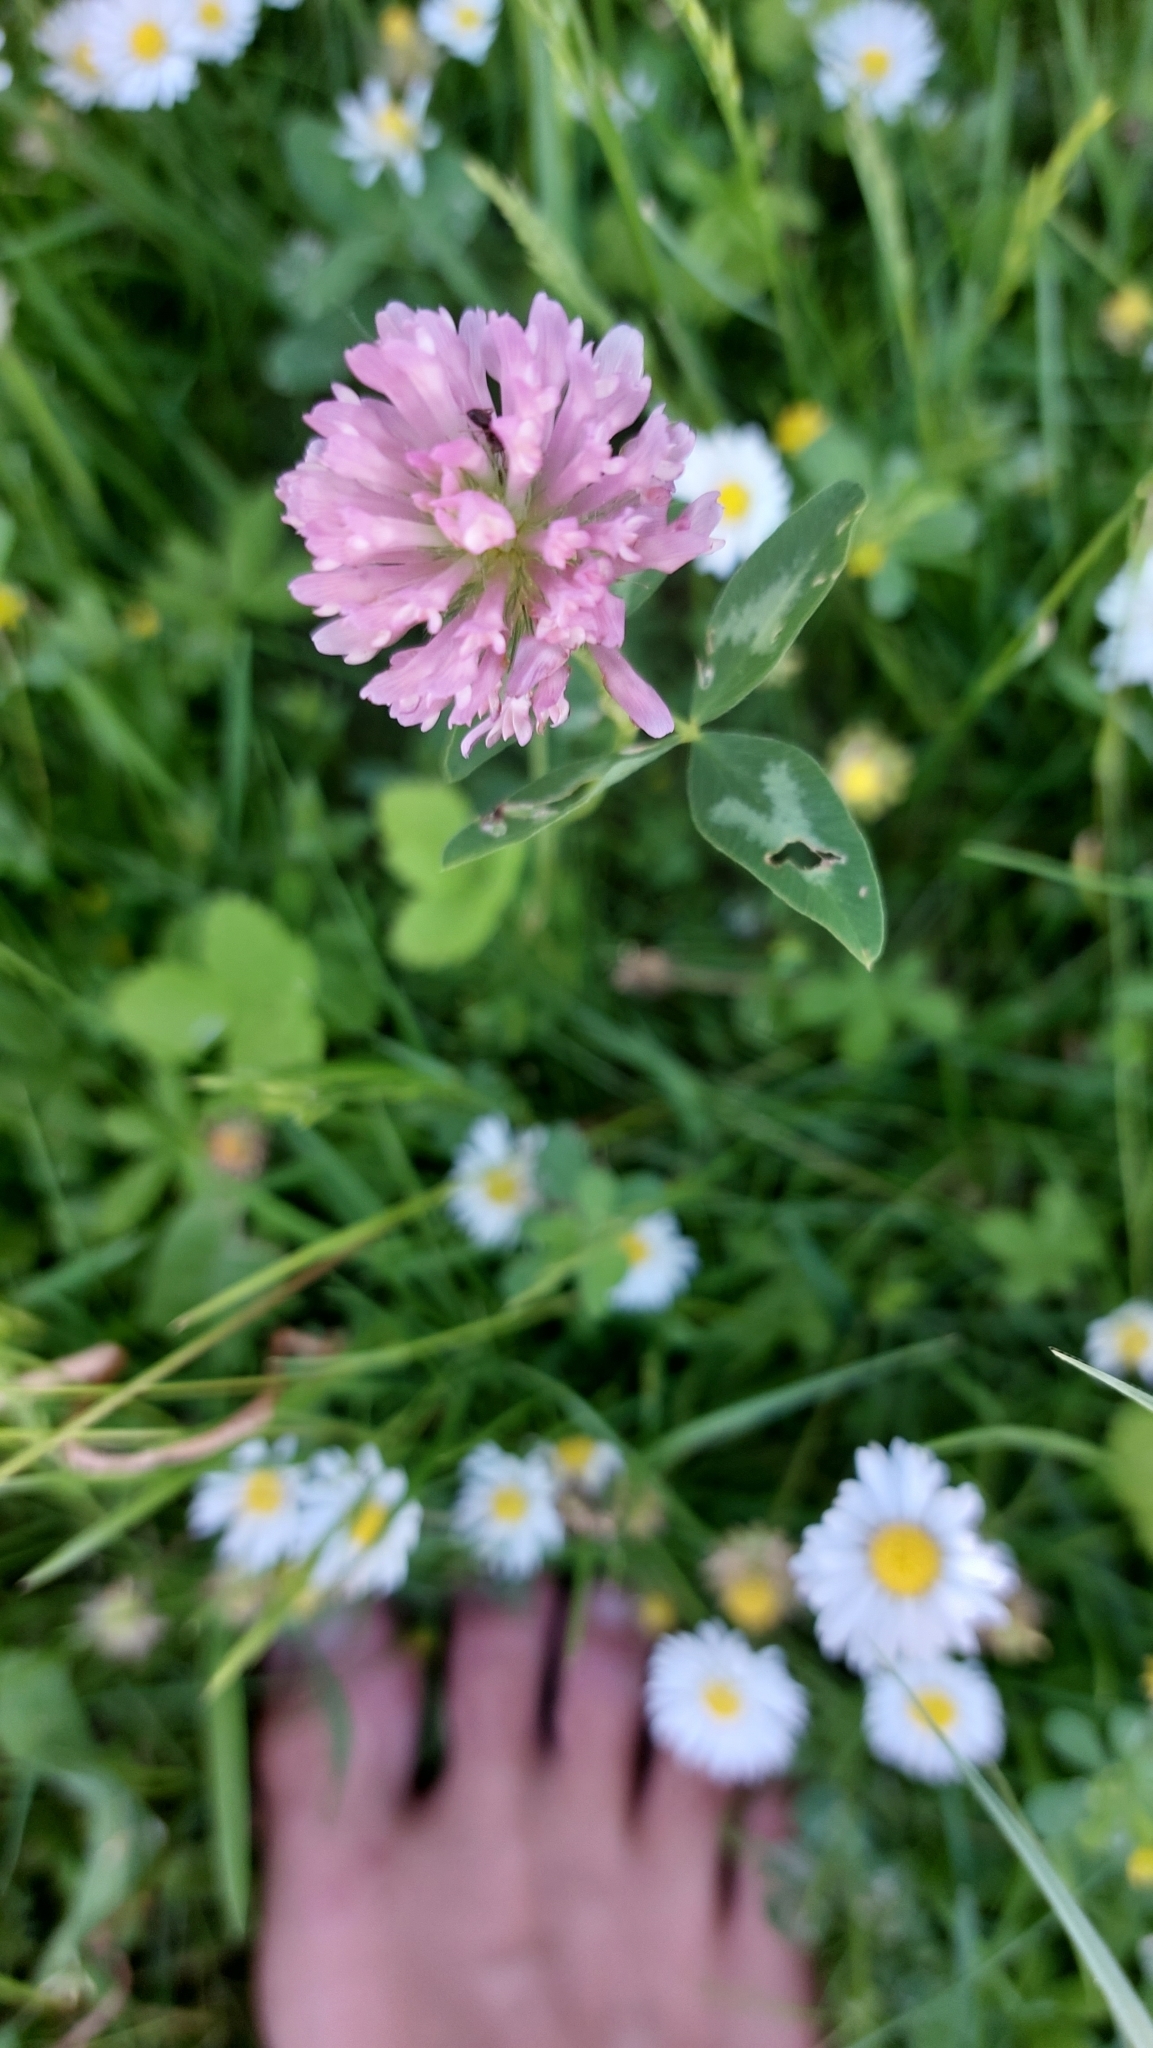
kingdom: Plantae
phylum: Tracheophyta
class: Magnoliopsida
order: Fabales
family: Fabaceae
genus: Trifolium
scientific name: Trifolium pratense
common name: Red clover
